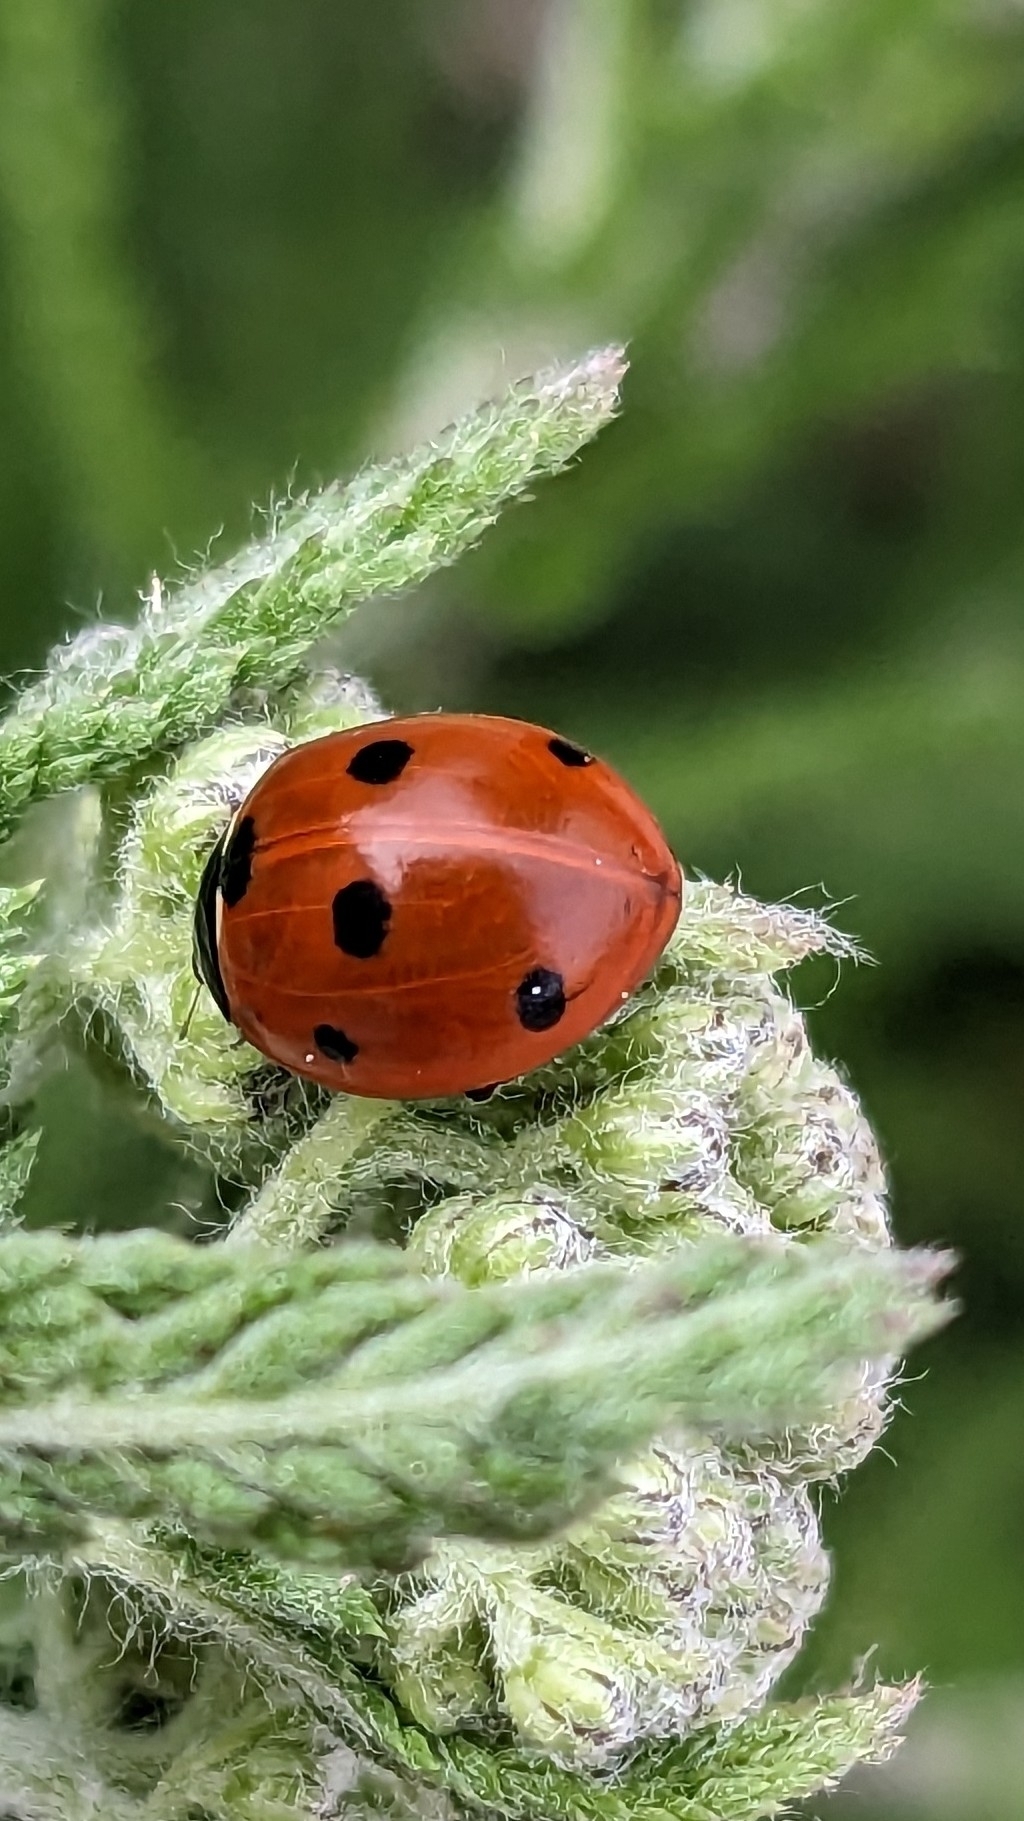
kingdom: Animalia
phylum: Arthropoda
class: Insecta
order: Coleoptera
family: Coccinellidae
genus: Coccinella
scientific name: Coccinella septempunctata
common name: Sevenspotted lady beetle
